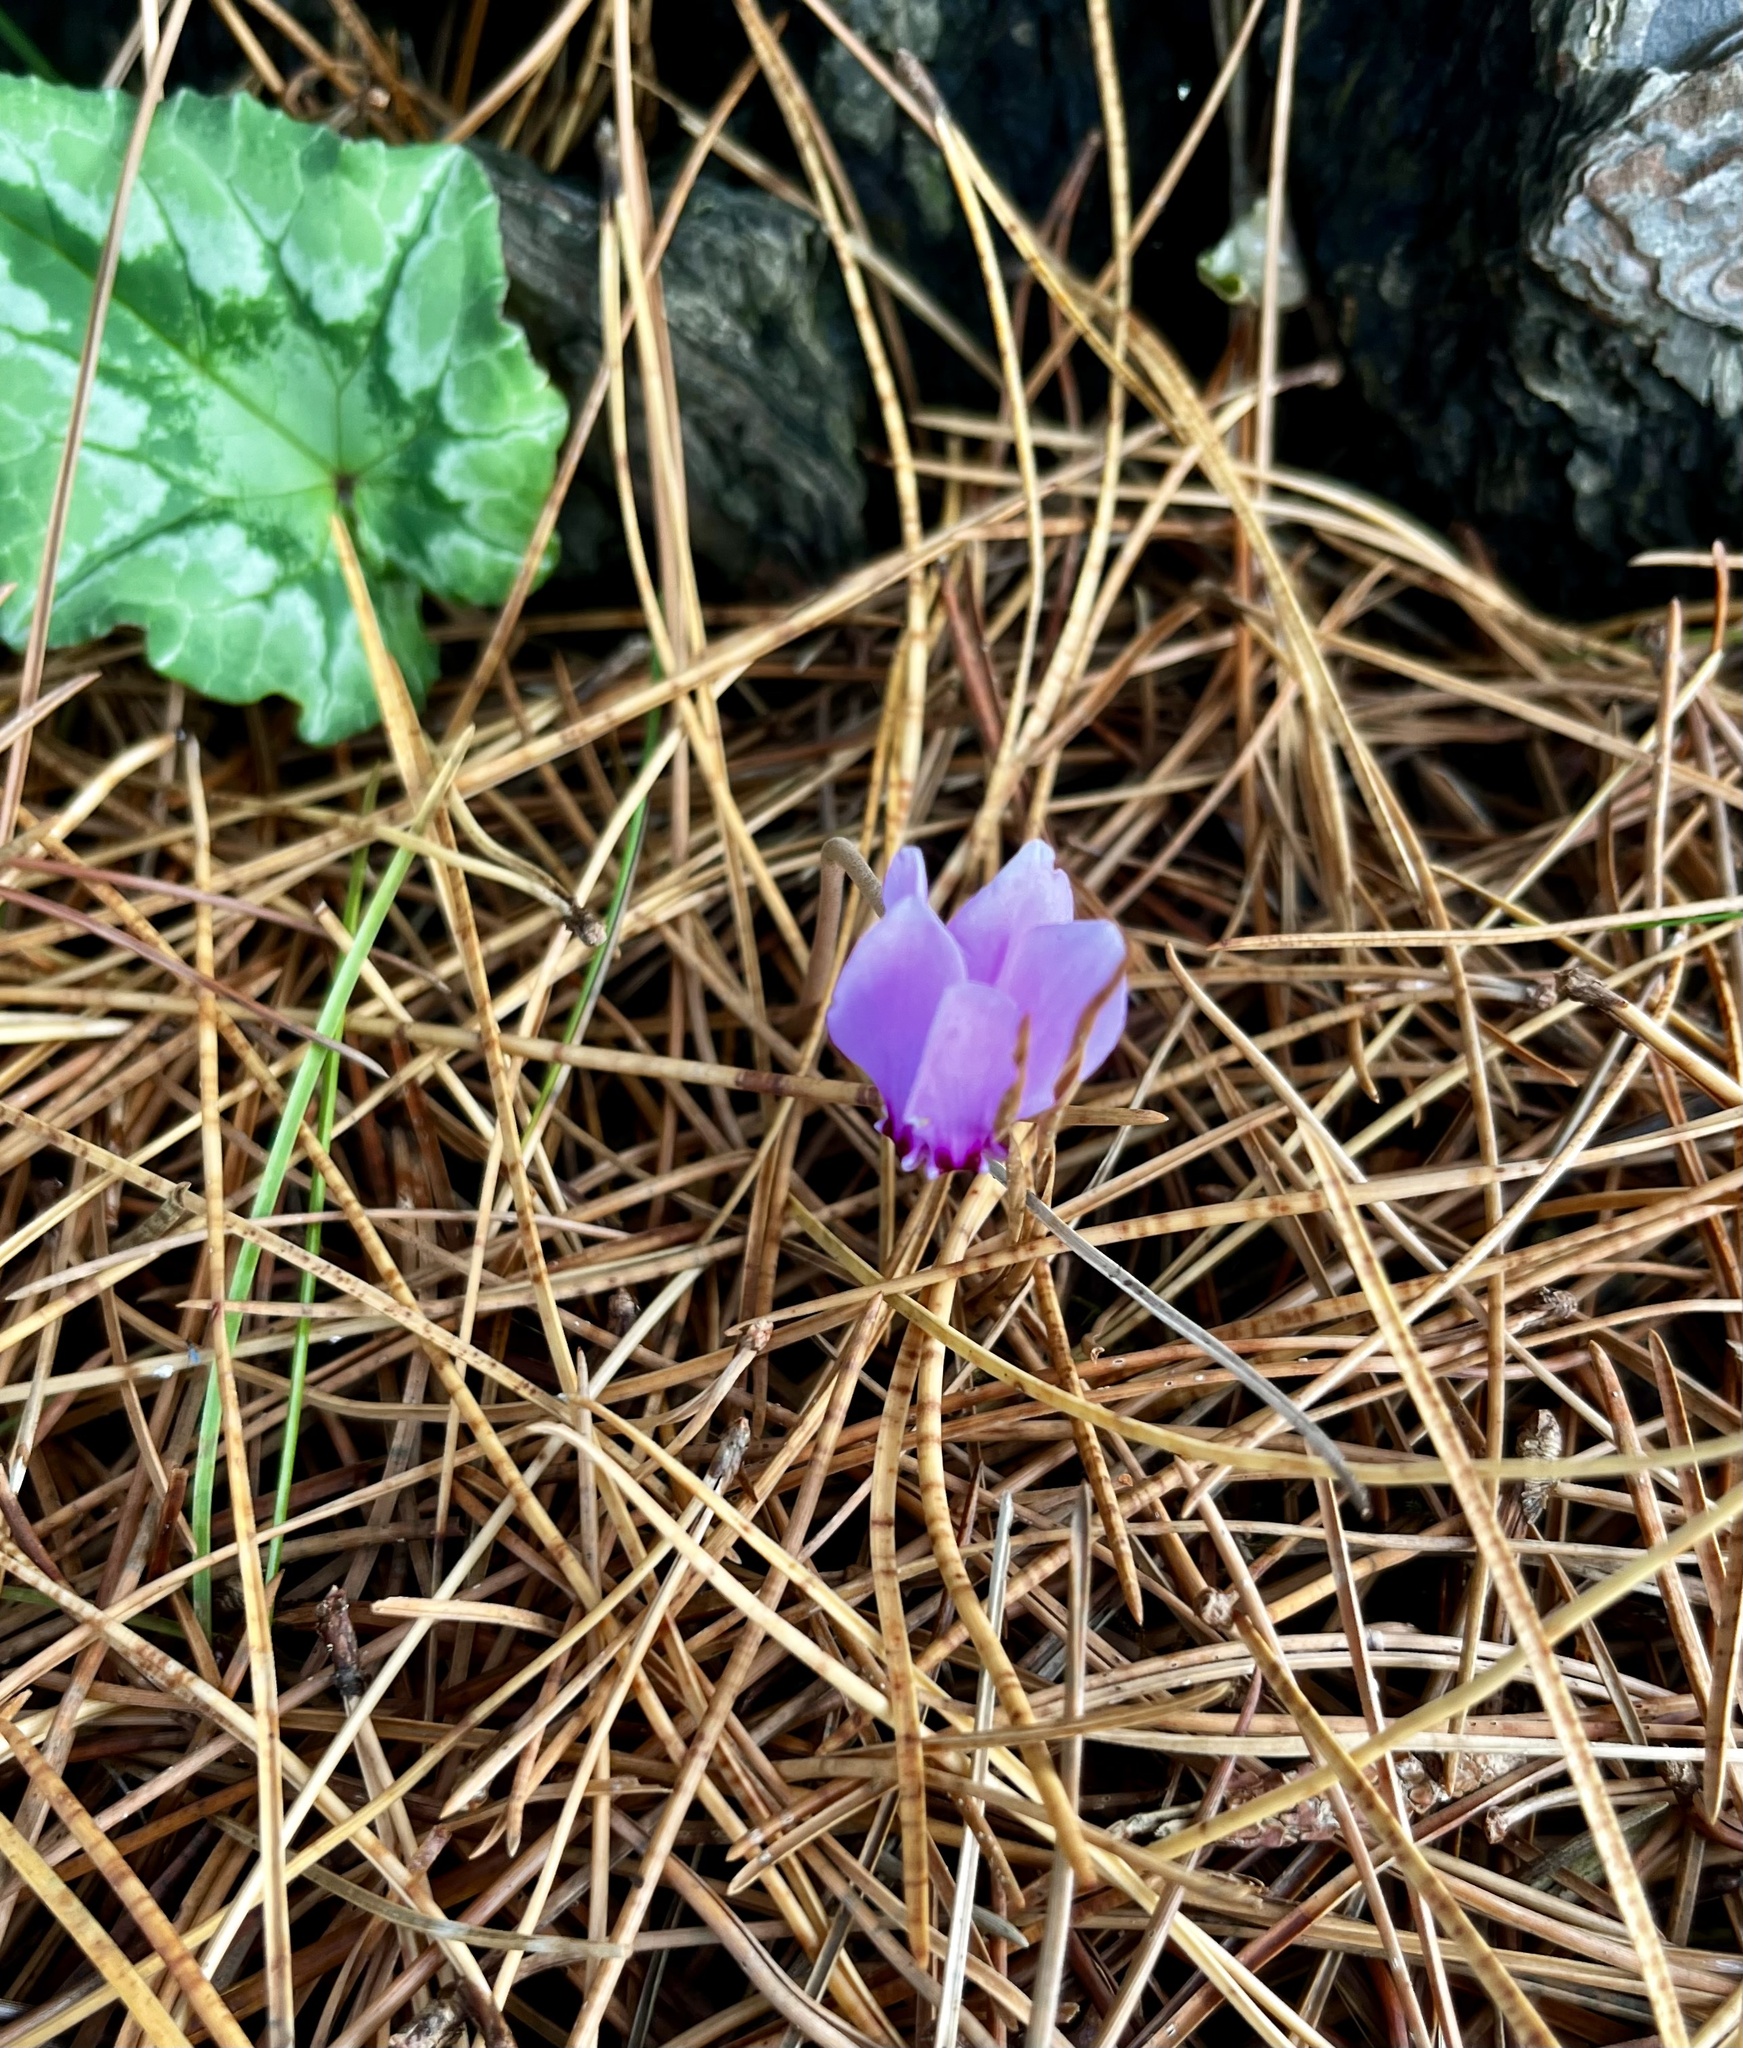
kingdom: Plantae
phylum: Tracheophyta
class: Magnoliopsida
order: Ericales
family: Primulaceae
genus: Cyclamen
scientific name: Cyclamen hederifolium
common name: Sowbread
